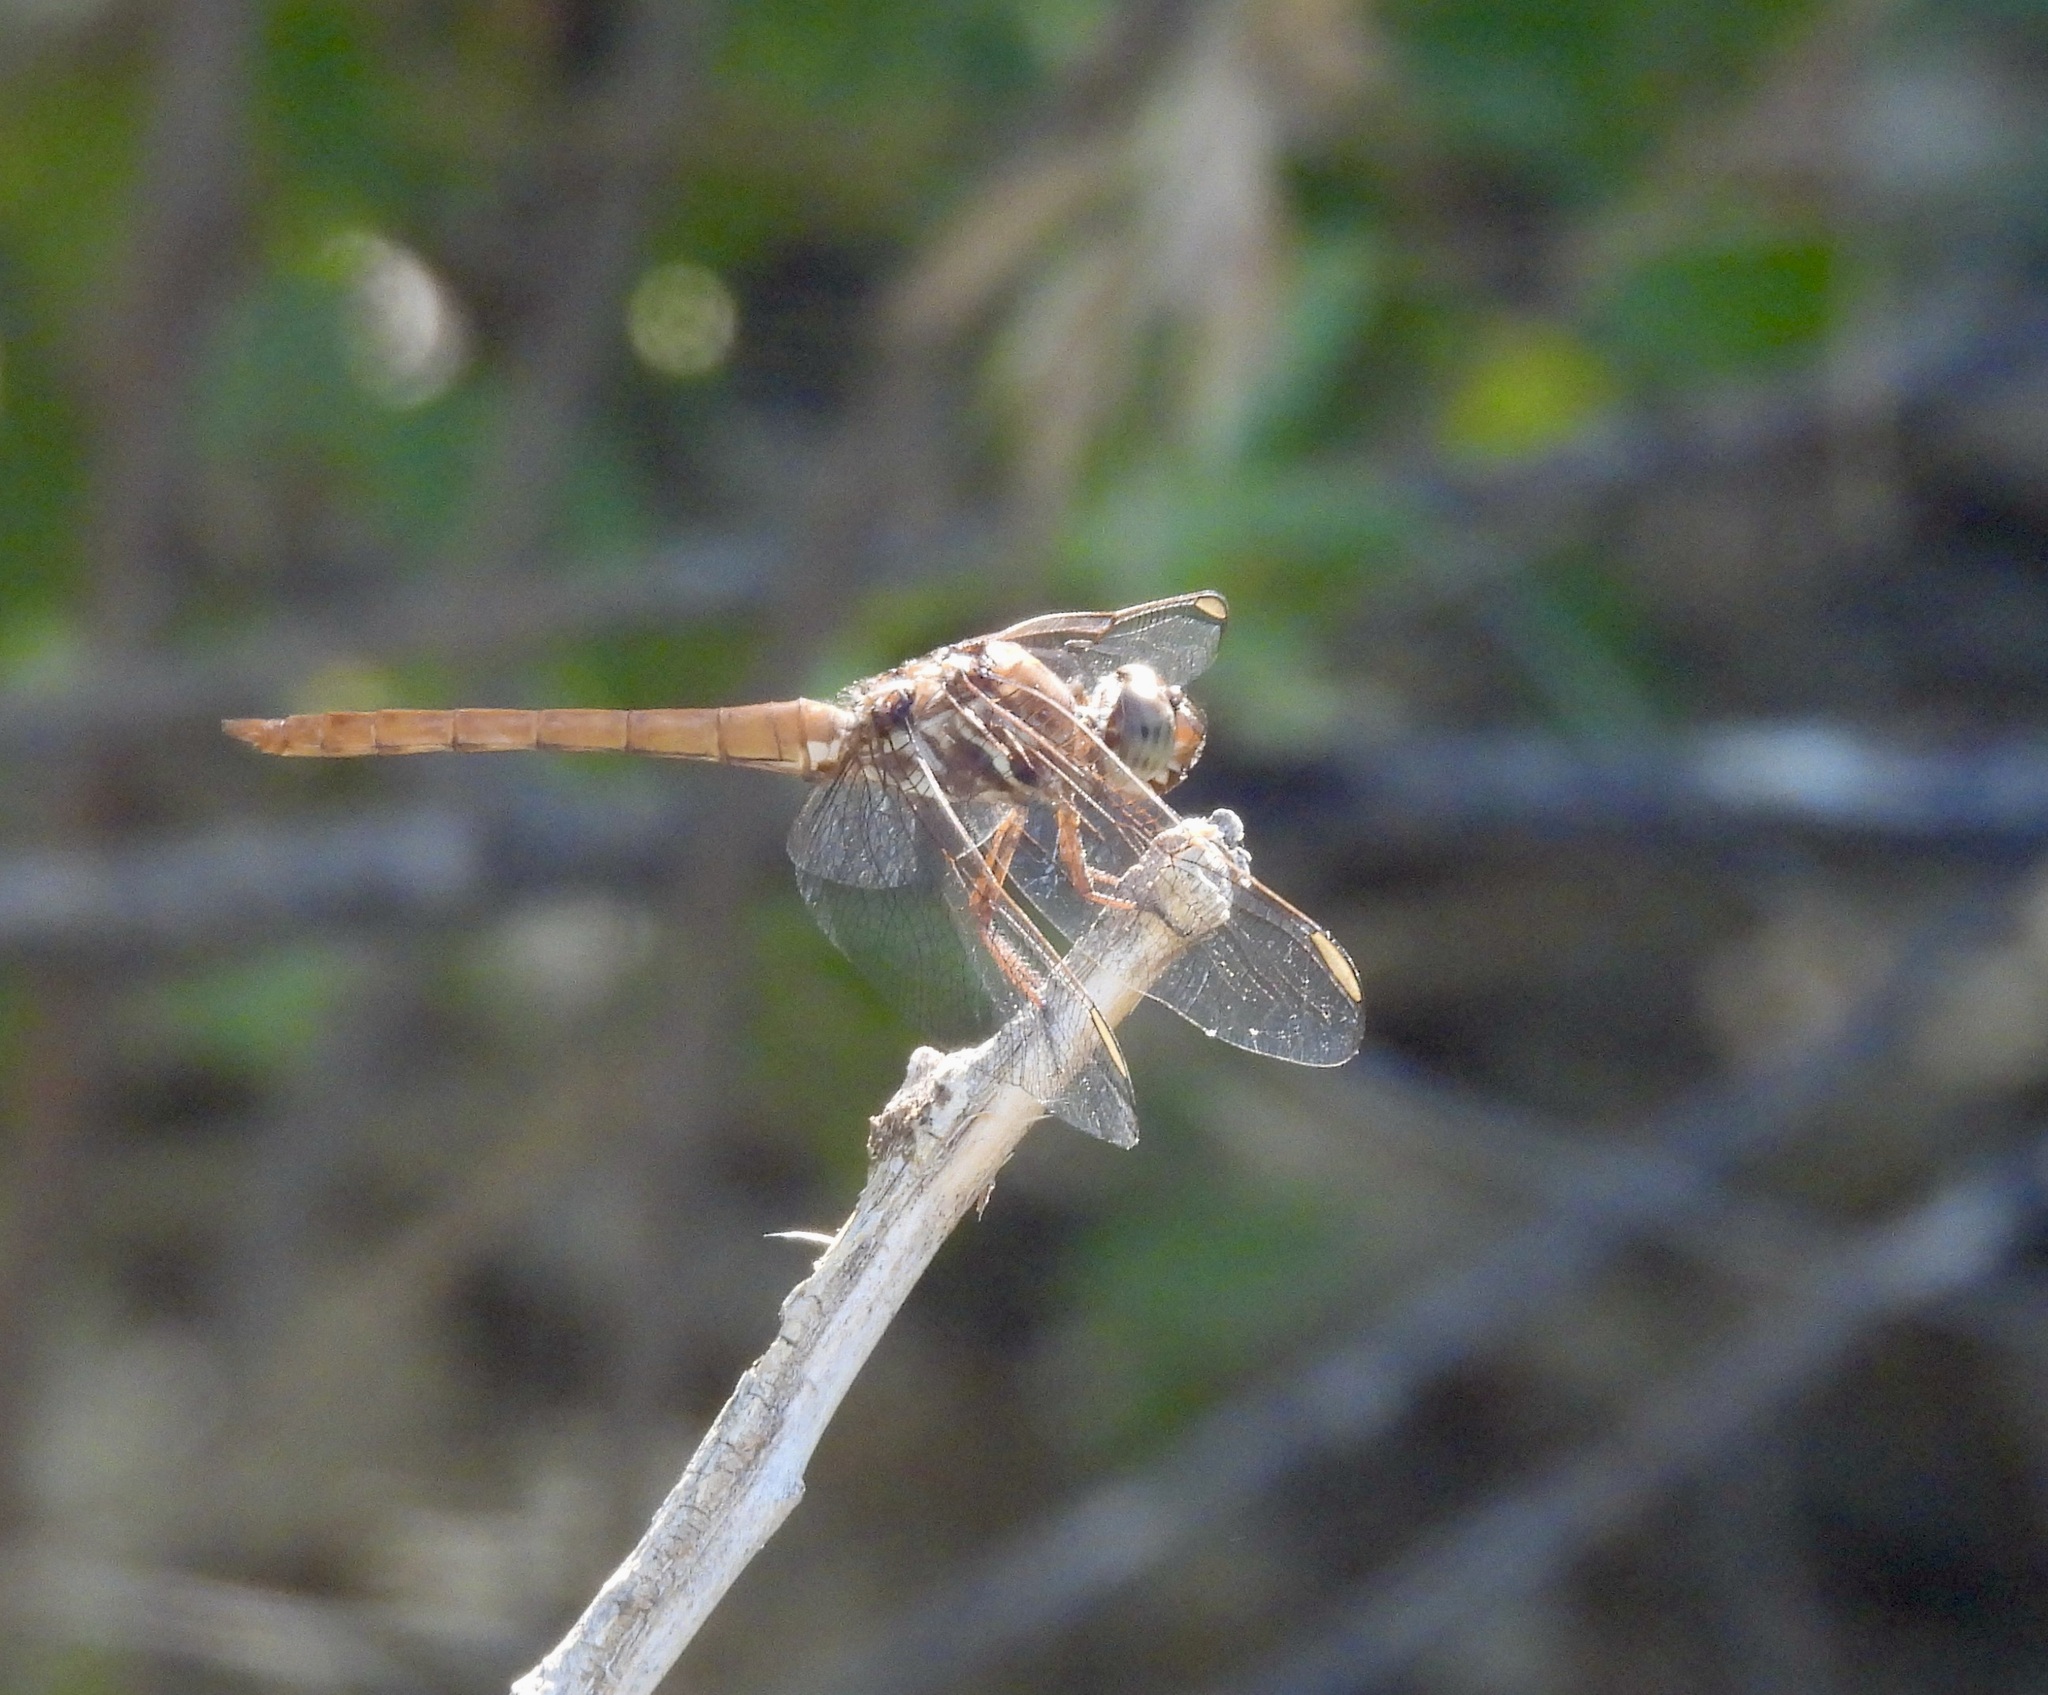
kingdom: Animalia
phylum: Arthropoda
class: Insecta
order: Odonata
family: Libellulidae
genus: Orthemis
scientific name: Orthemis ferruginea
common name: Roseate skimmer
